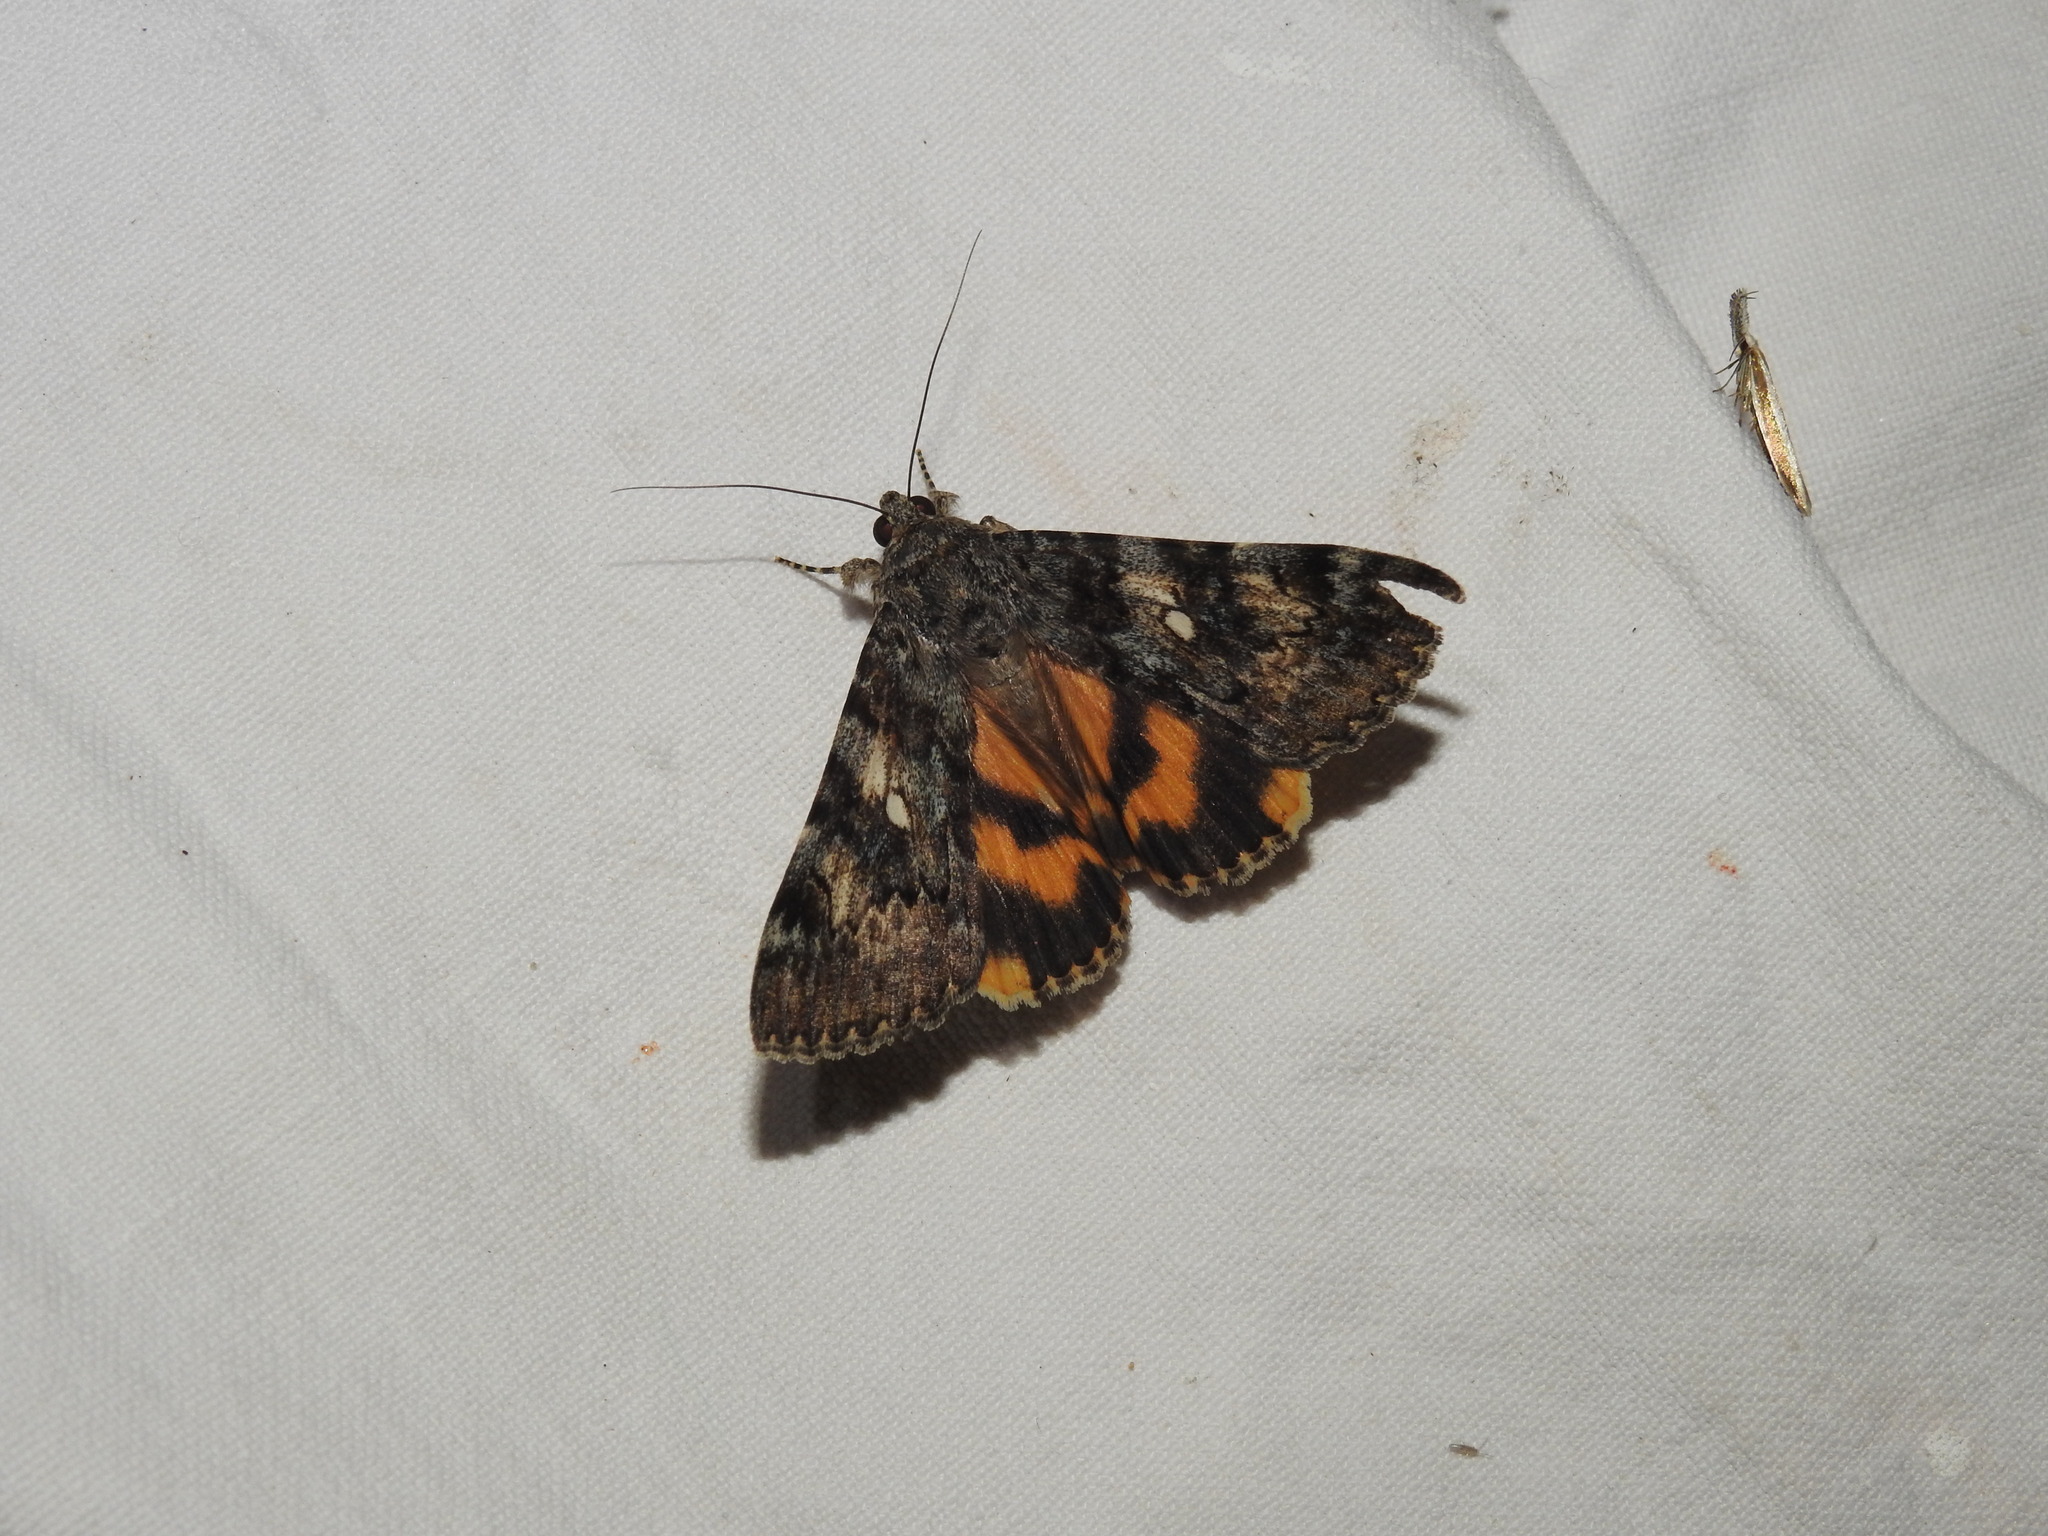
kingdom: Animalia
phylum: Arthropoda
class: Insecta
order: Lepidoptera
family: Erebidae
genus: Catocala
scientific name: Catocala nymphaea
